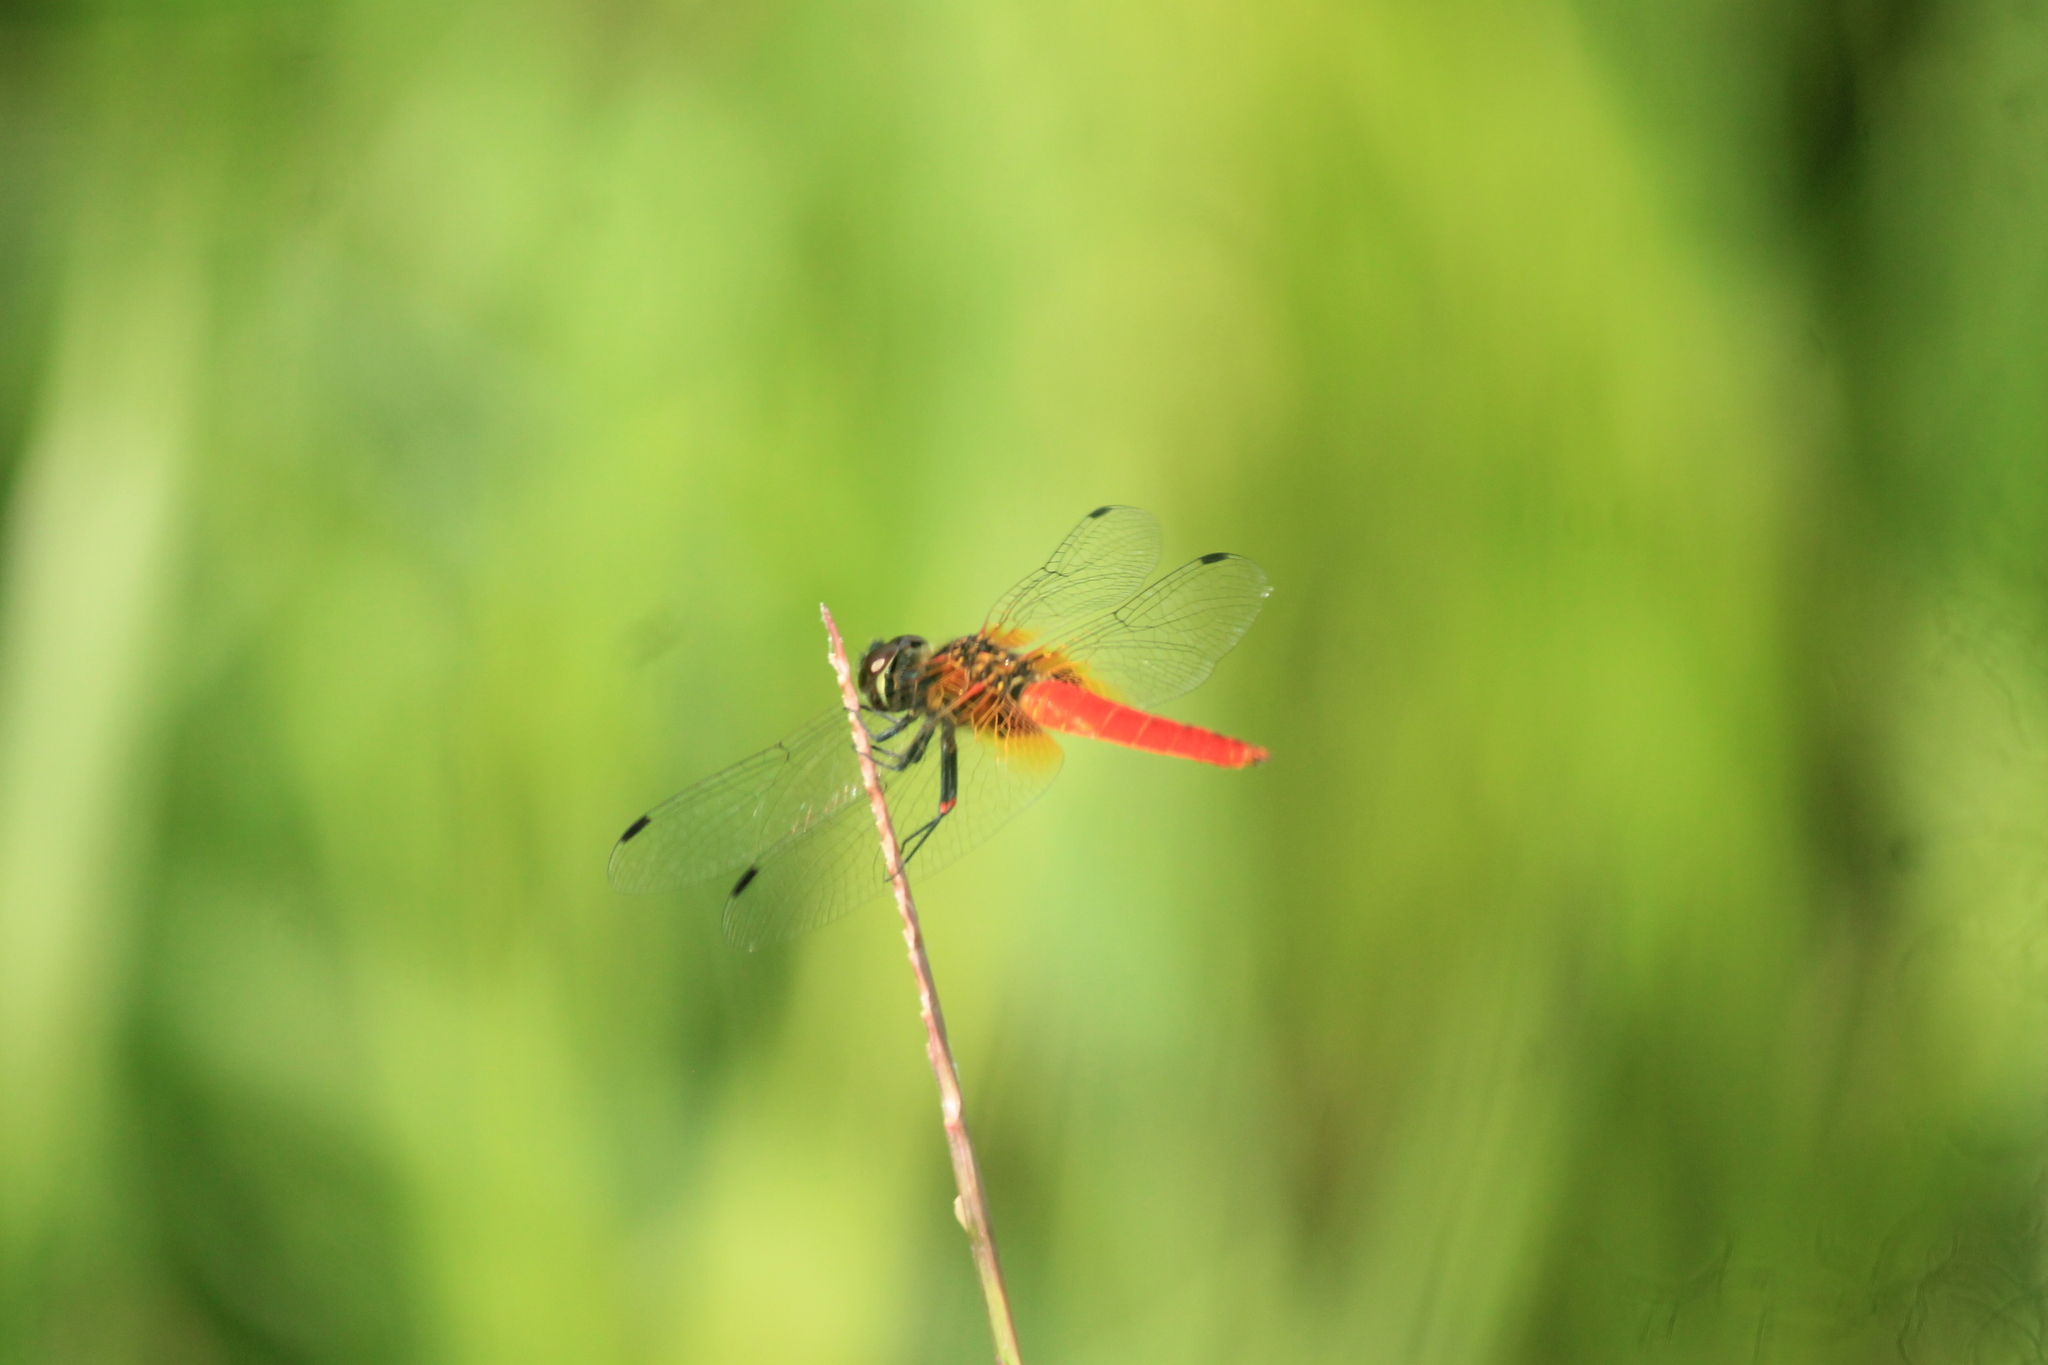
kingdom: Animalia
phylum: Arthropoda
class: Insecta
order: Odonata
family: Libellulidae
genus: Aethriamanta
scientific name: Aethriamanta brevipennis
